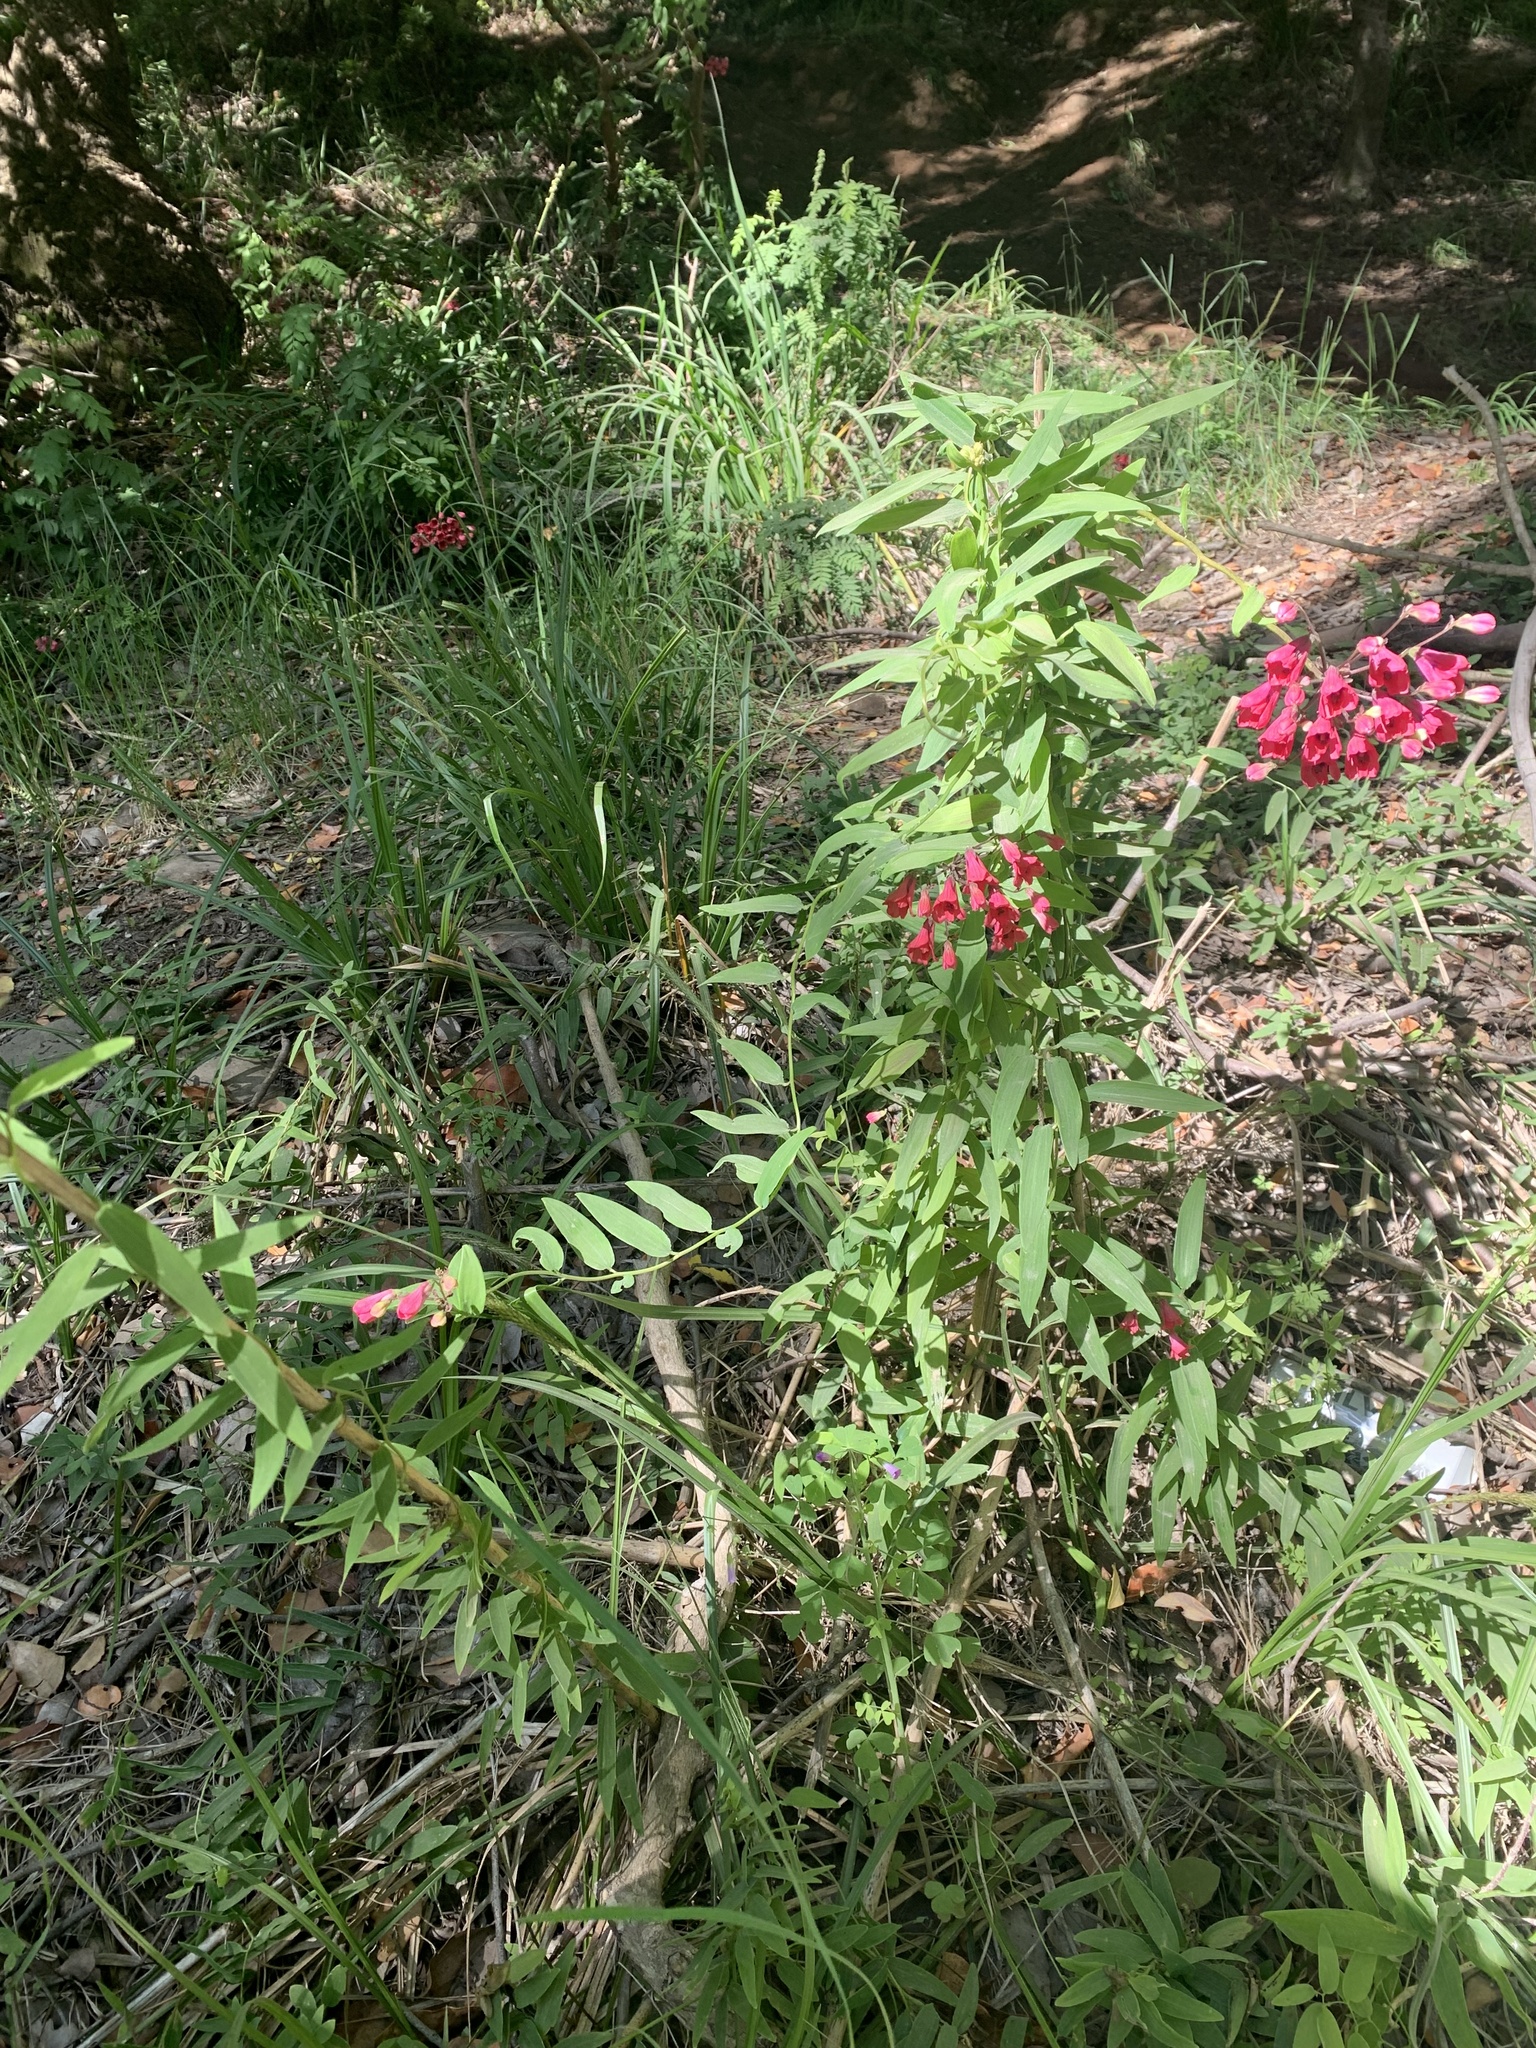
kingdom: Plantae
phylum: Tracheophyta
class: Liliopsida
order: Liliales
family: Alstroemeriaceae
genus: Bomarea
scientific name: Bomarea salsilla
